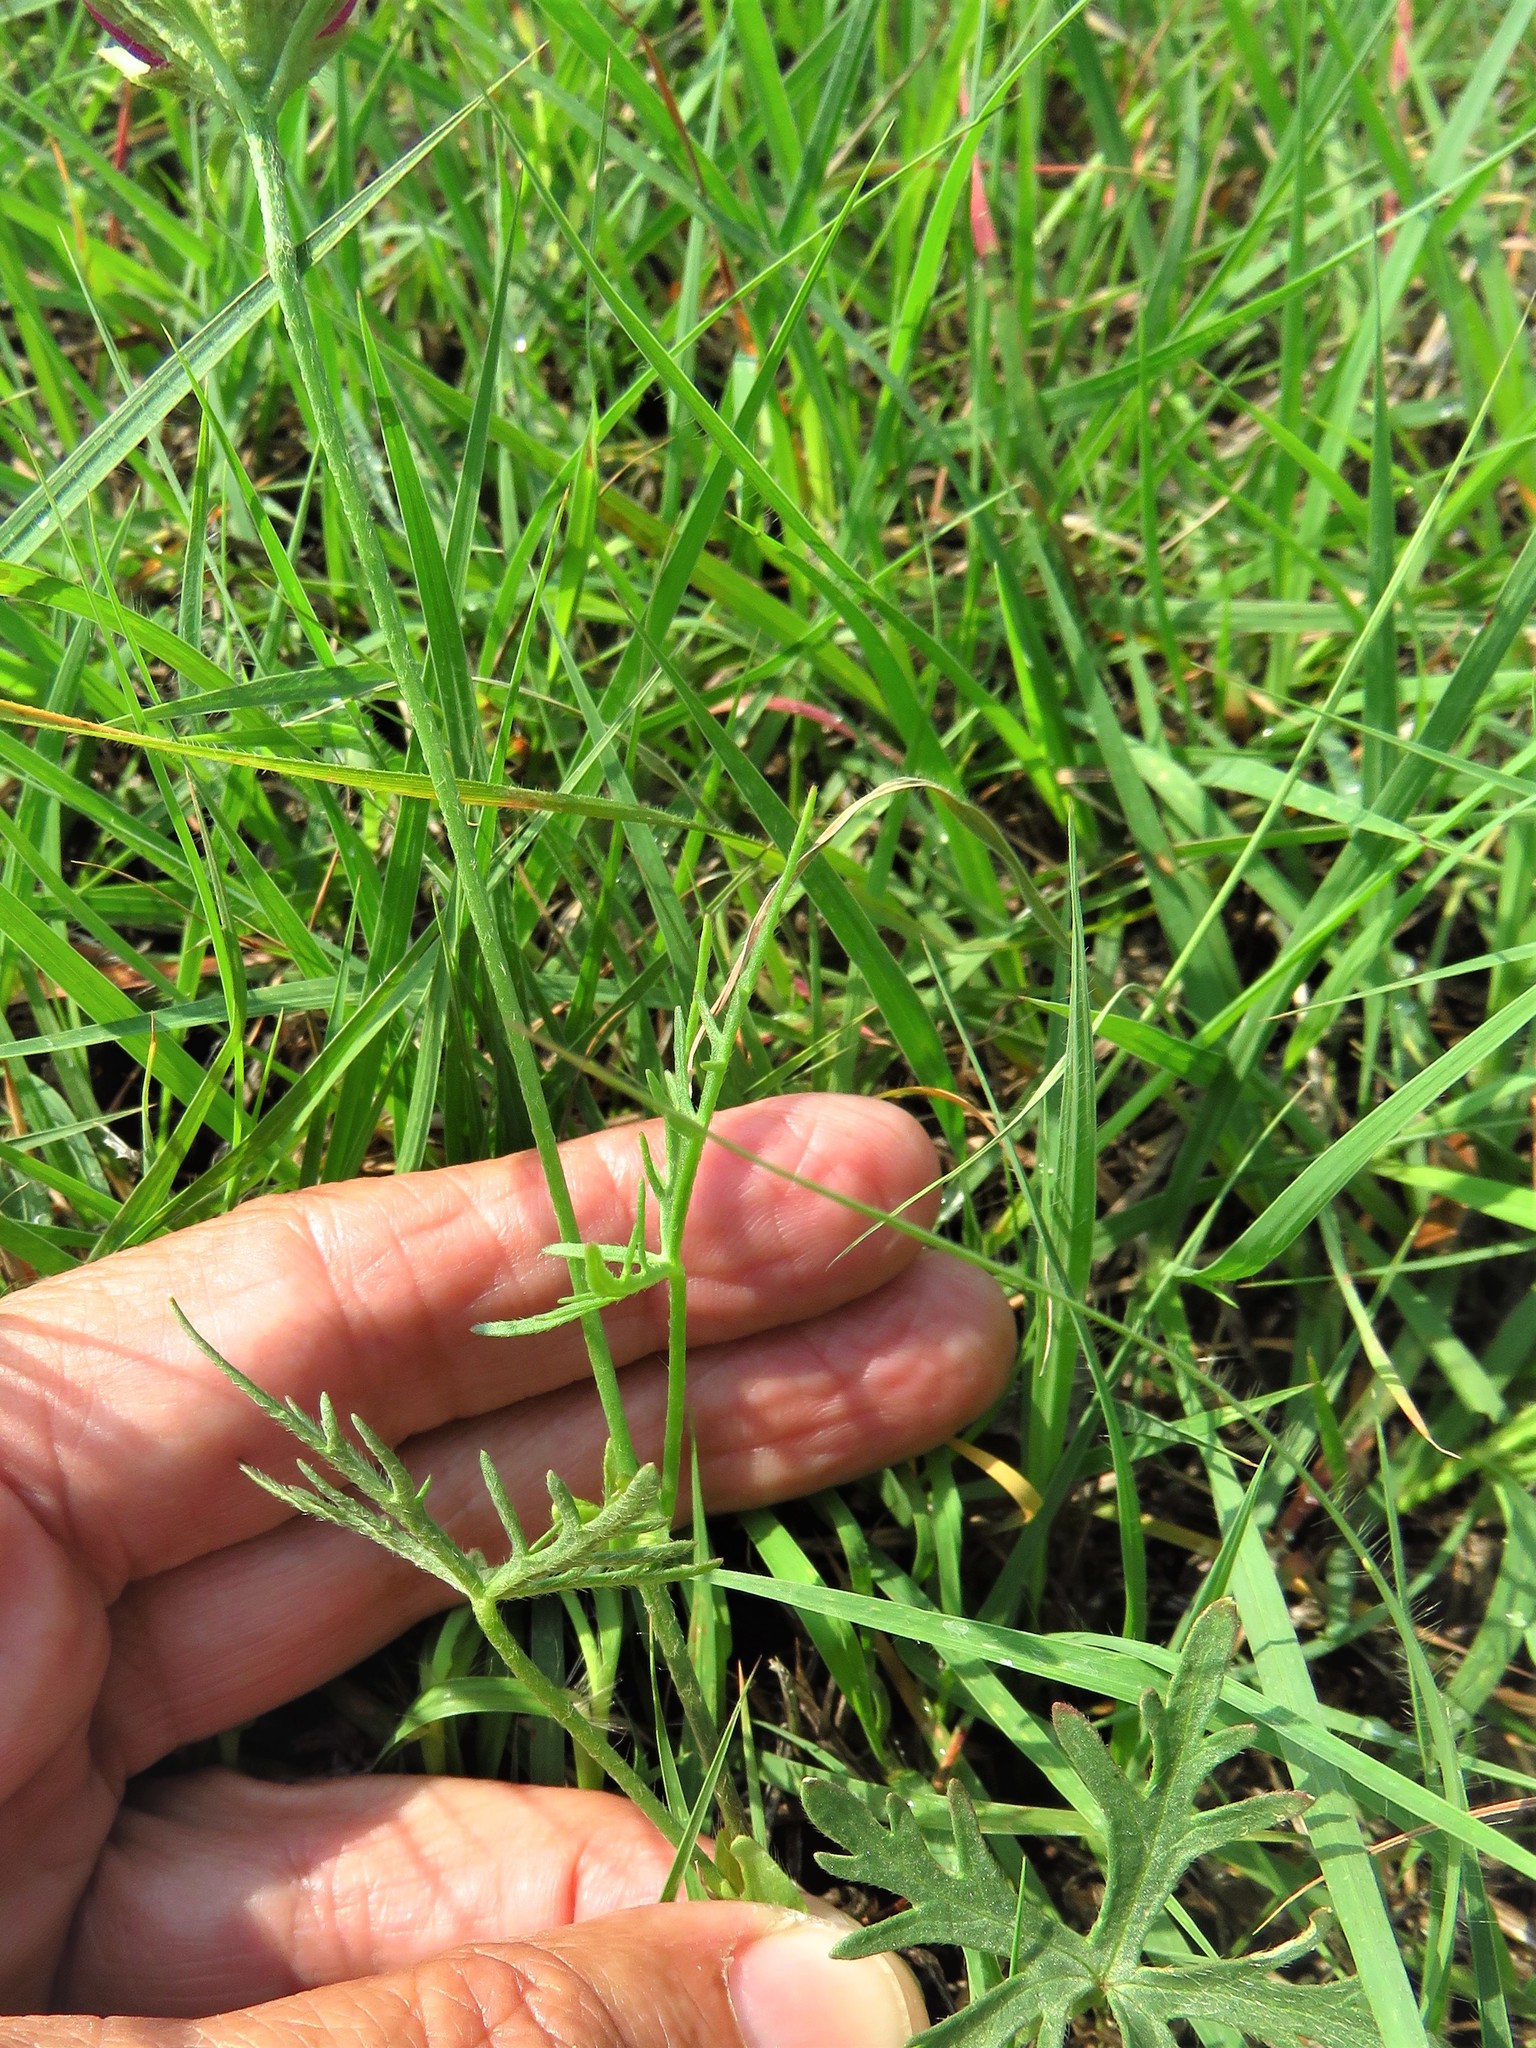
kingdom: Plantae
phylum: Tracheophyta
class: Magnoliopsida
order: Malvales
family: Malvaceae
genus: Callirhoe
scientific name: Callirhoe involucrata
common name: Purple poppy-mallow
